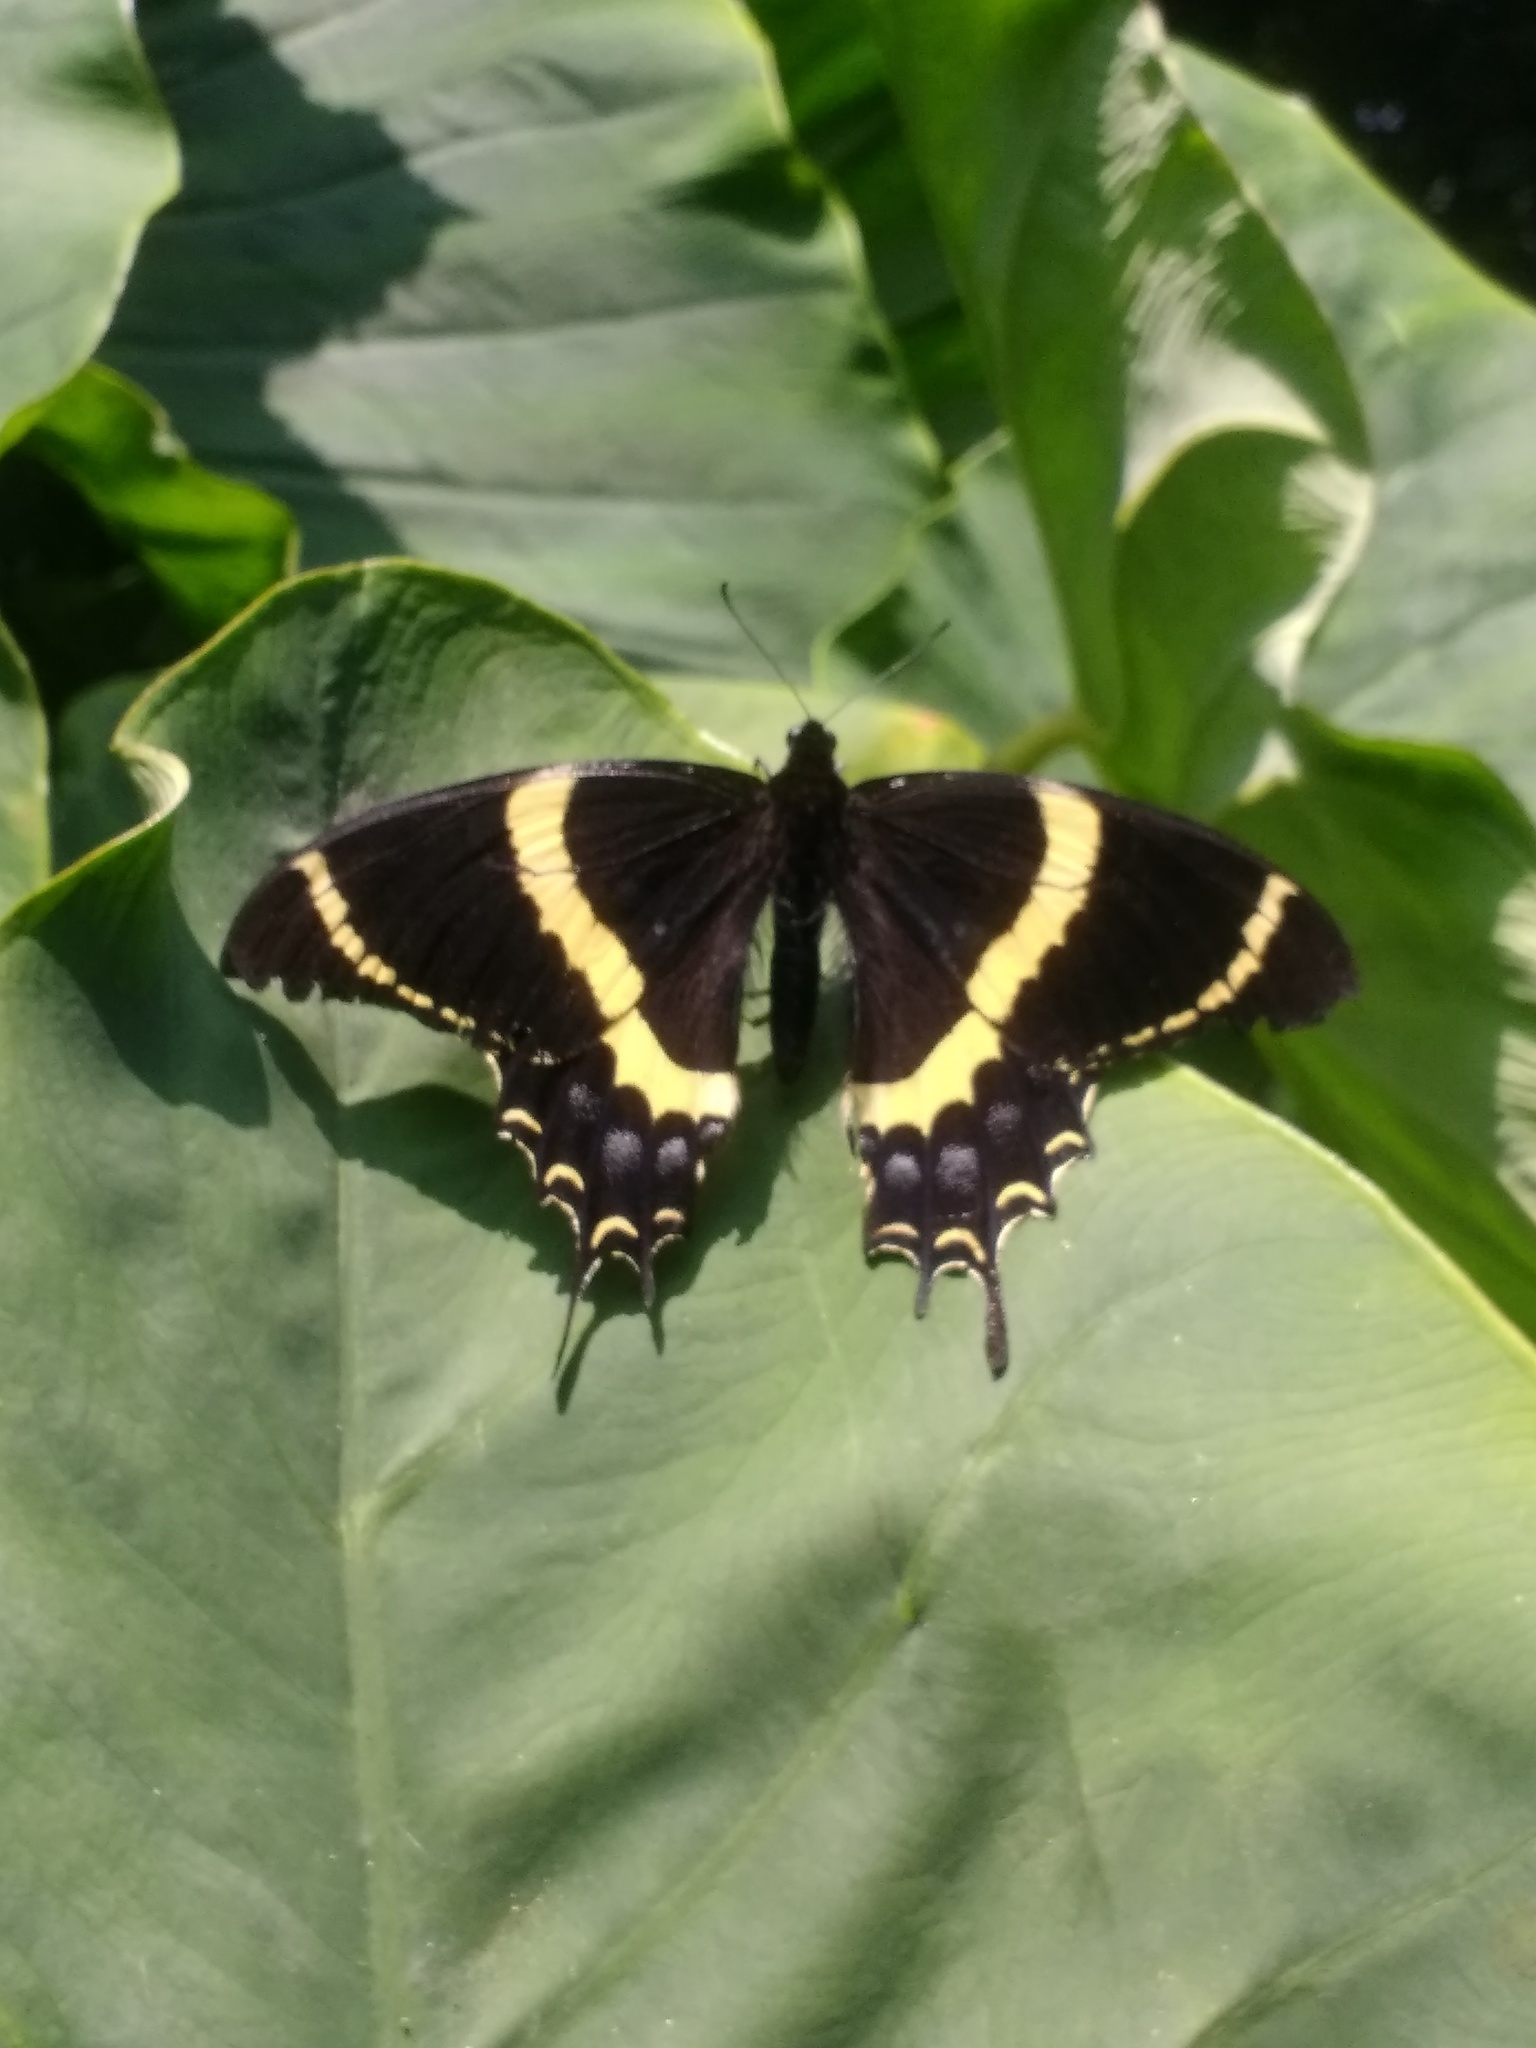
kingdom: Animalia
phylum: Arthropoda
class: Insecta
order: Lepidoptera
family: Papilionidae
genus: Papilio
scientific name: Papilio garamas
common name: Magnificent swallowtail
